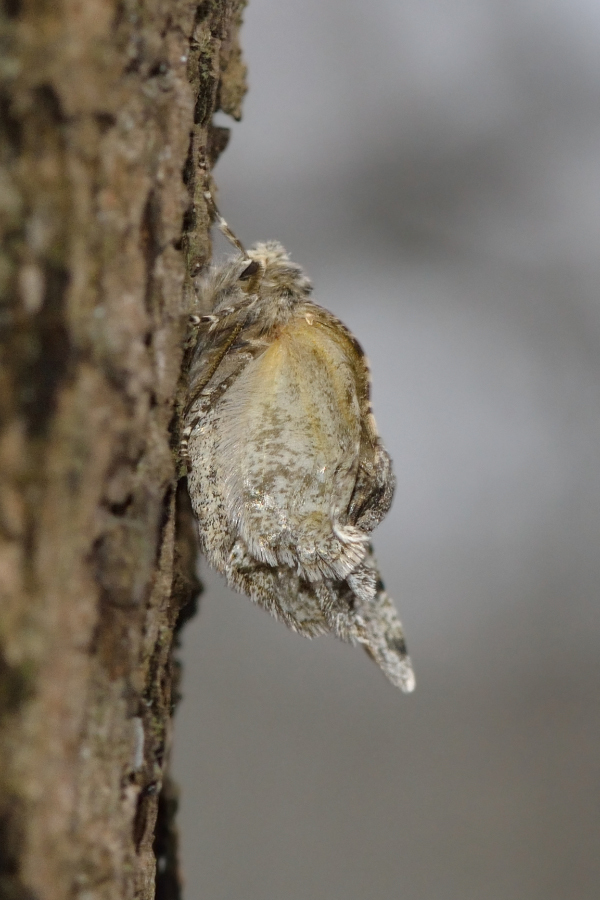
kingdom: Animalia
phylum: Arthropoda
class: Insecta
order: Lepidoptera
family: Geometridae
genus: Phigalia
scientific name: Phigalia pilosaria
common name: Pale brindled beauty
